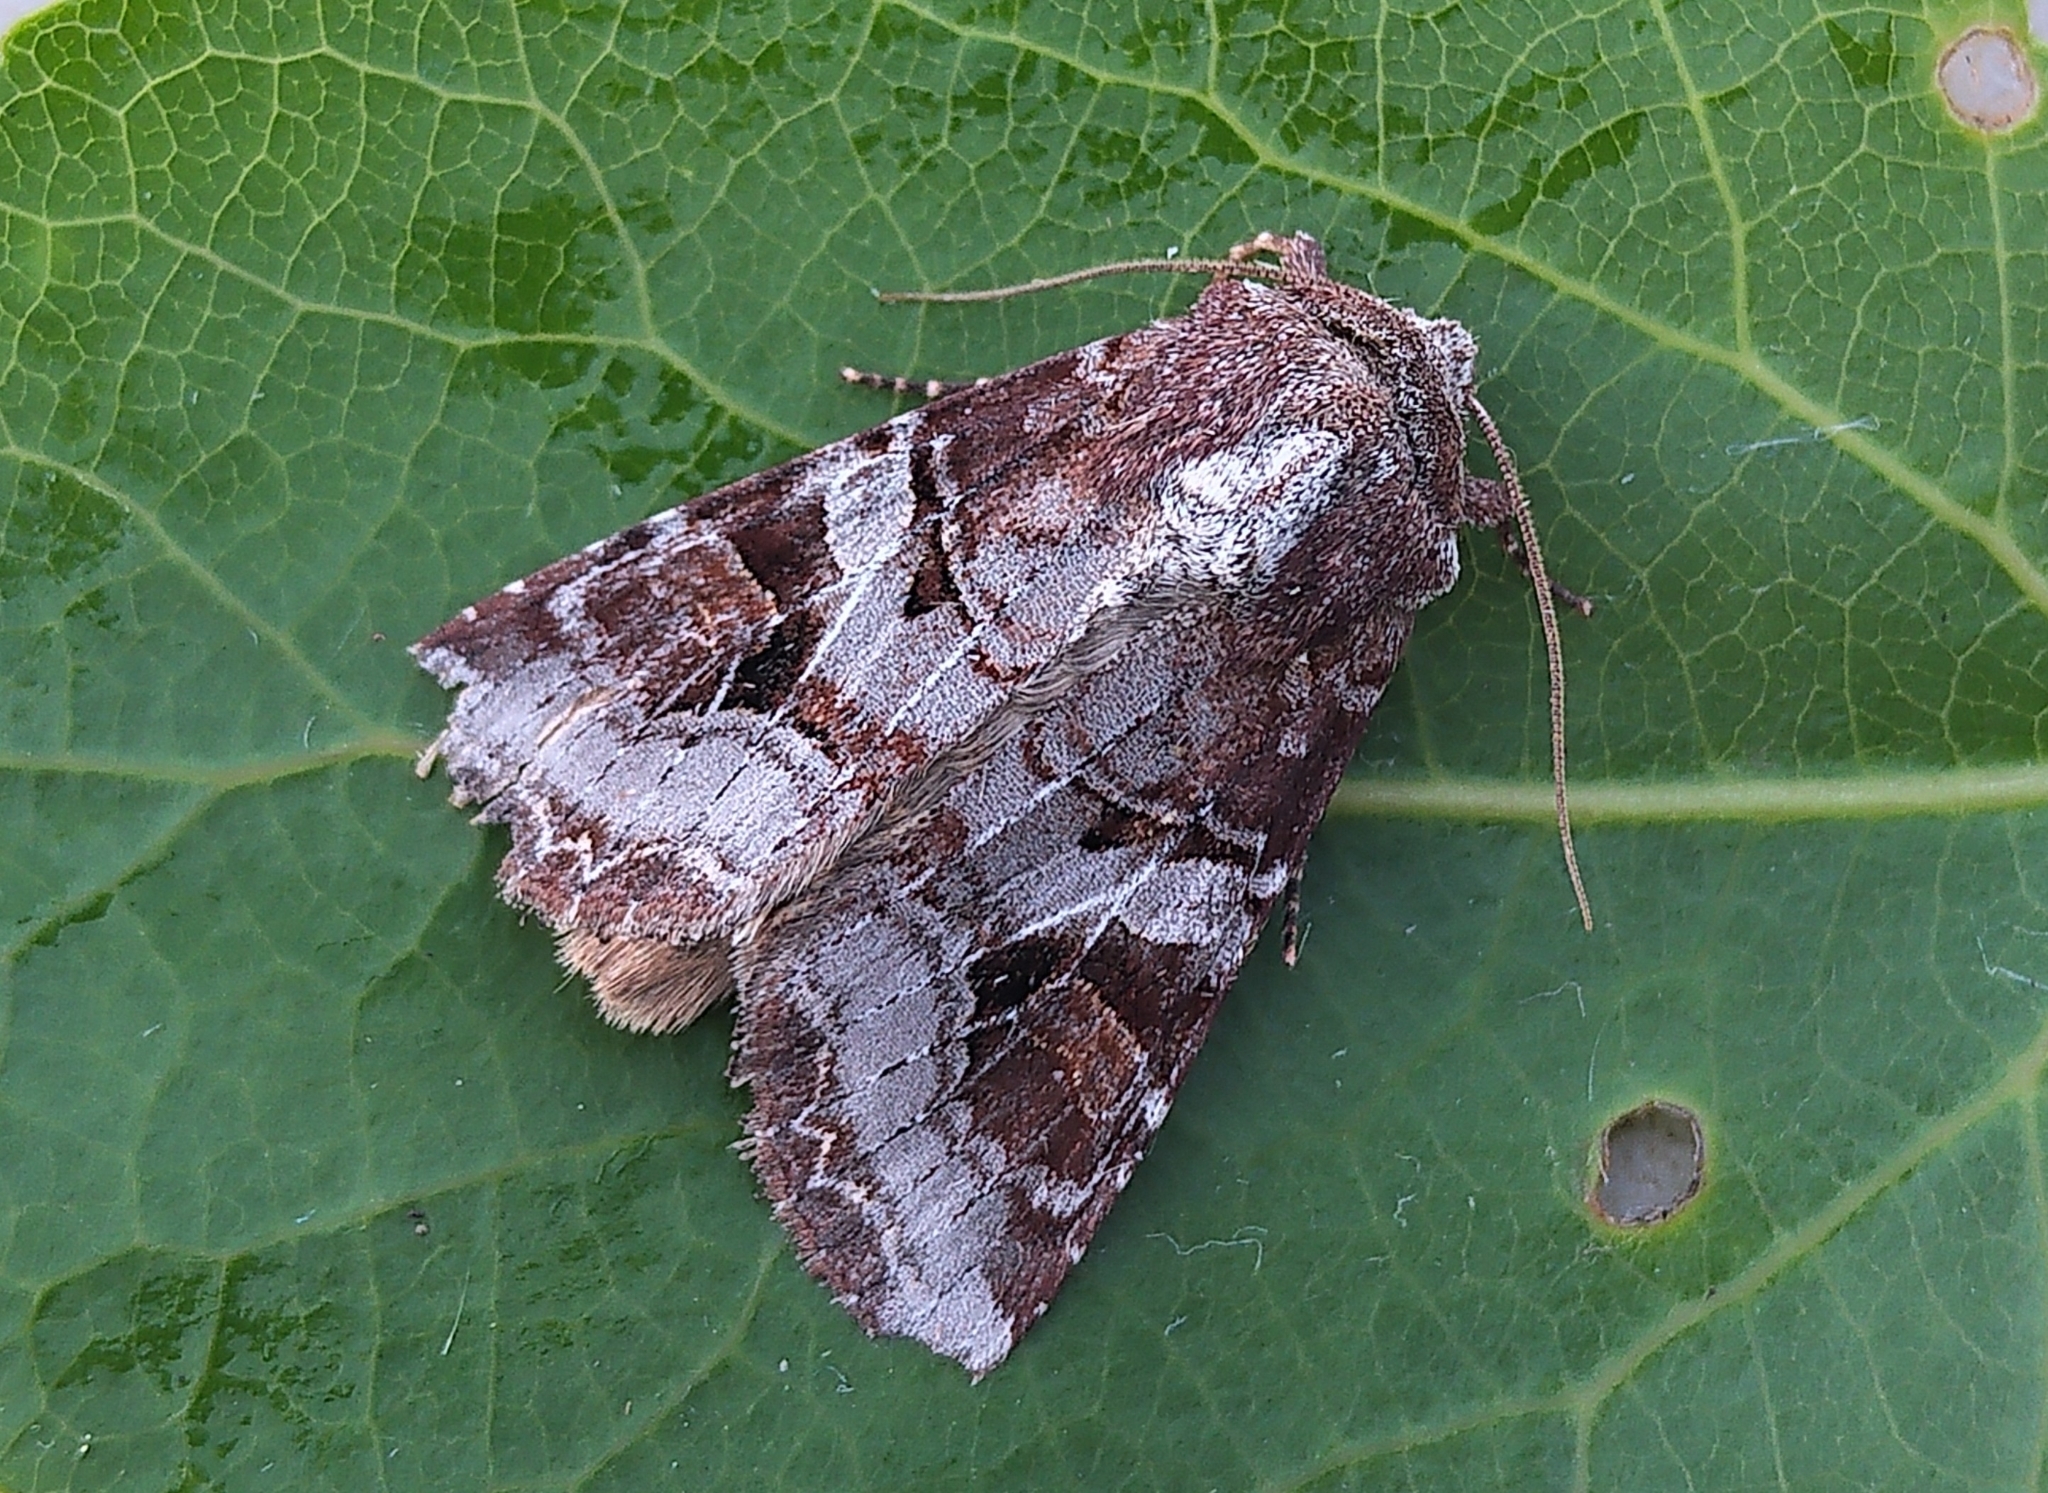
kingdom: Animalia
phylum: Arthropoda
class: Insecta
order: Lepidoptera
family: Noctuidae
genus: Trichordestra
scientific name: Trichordestra tacoma
